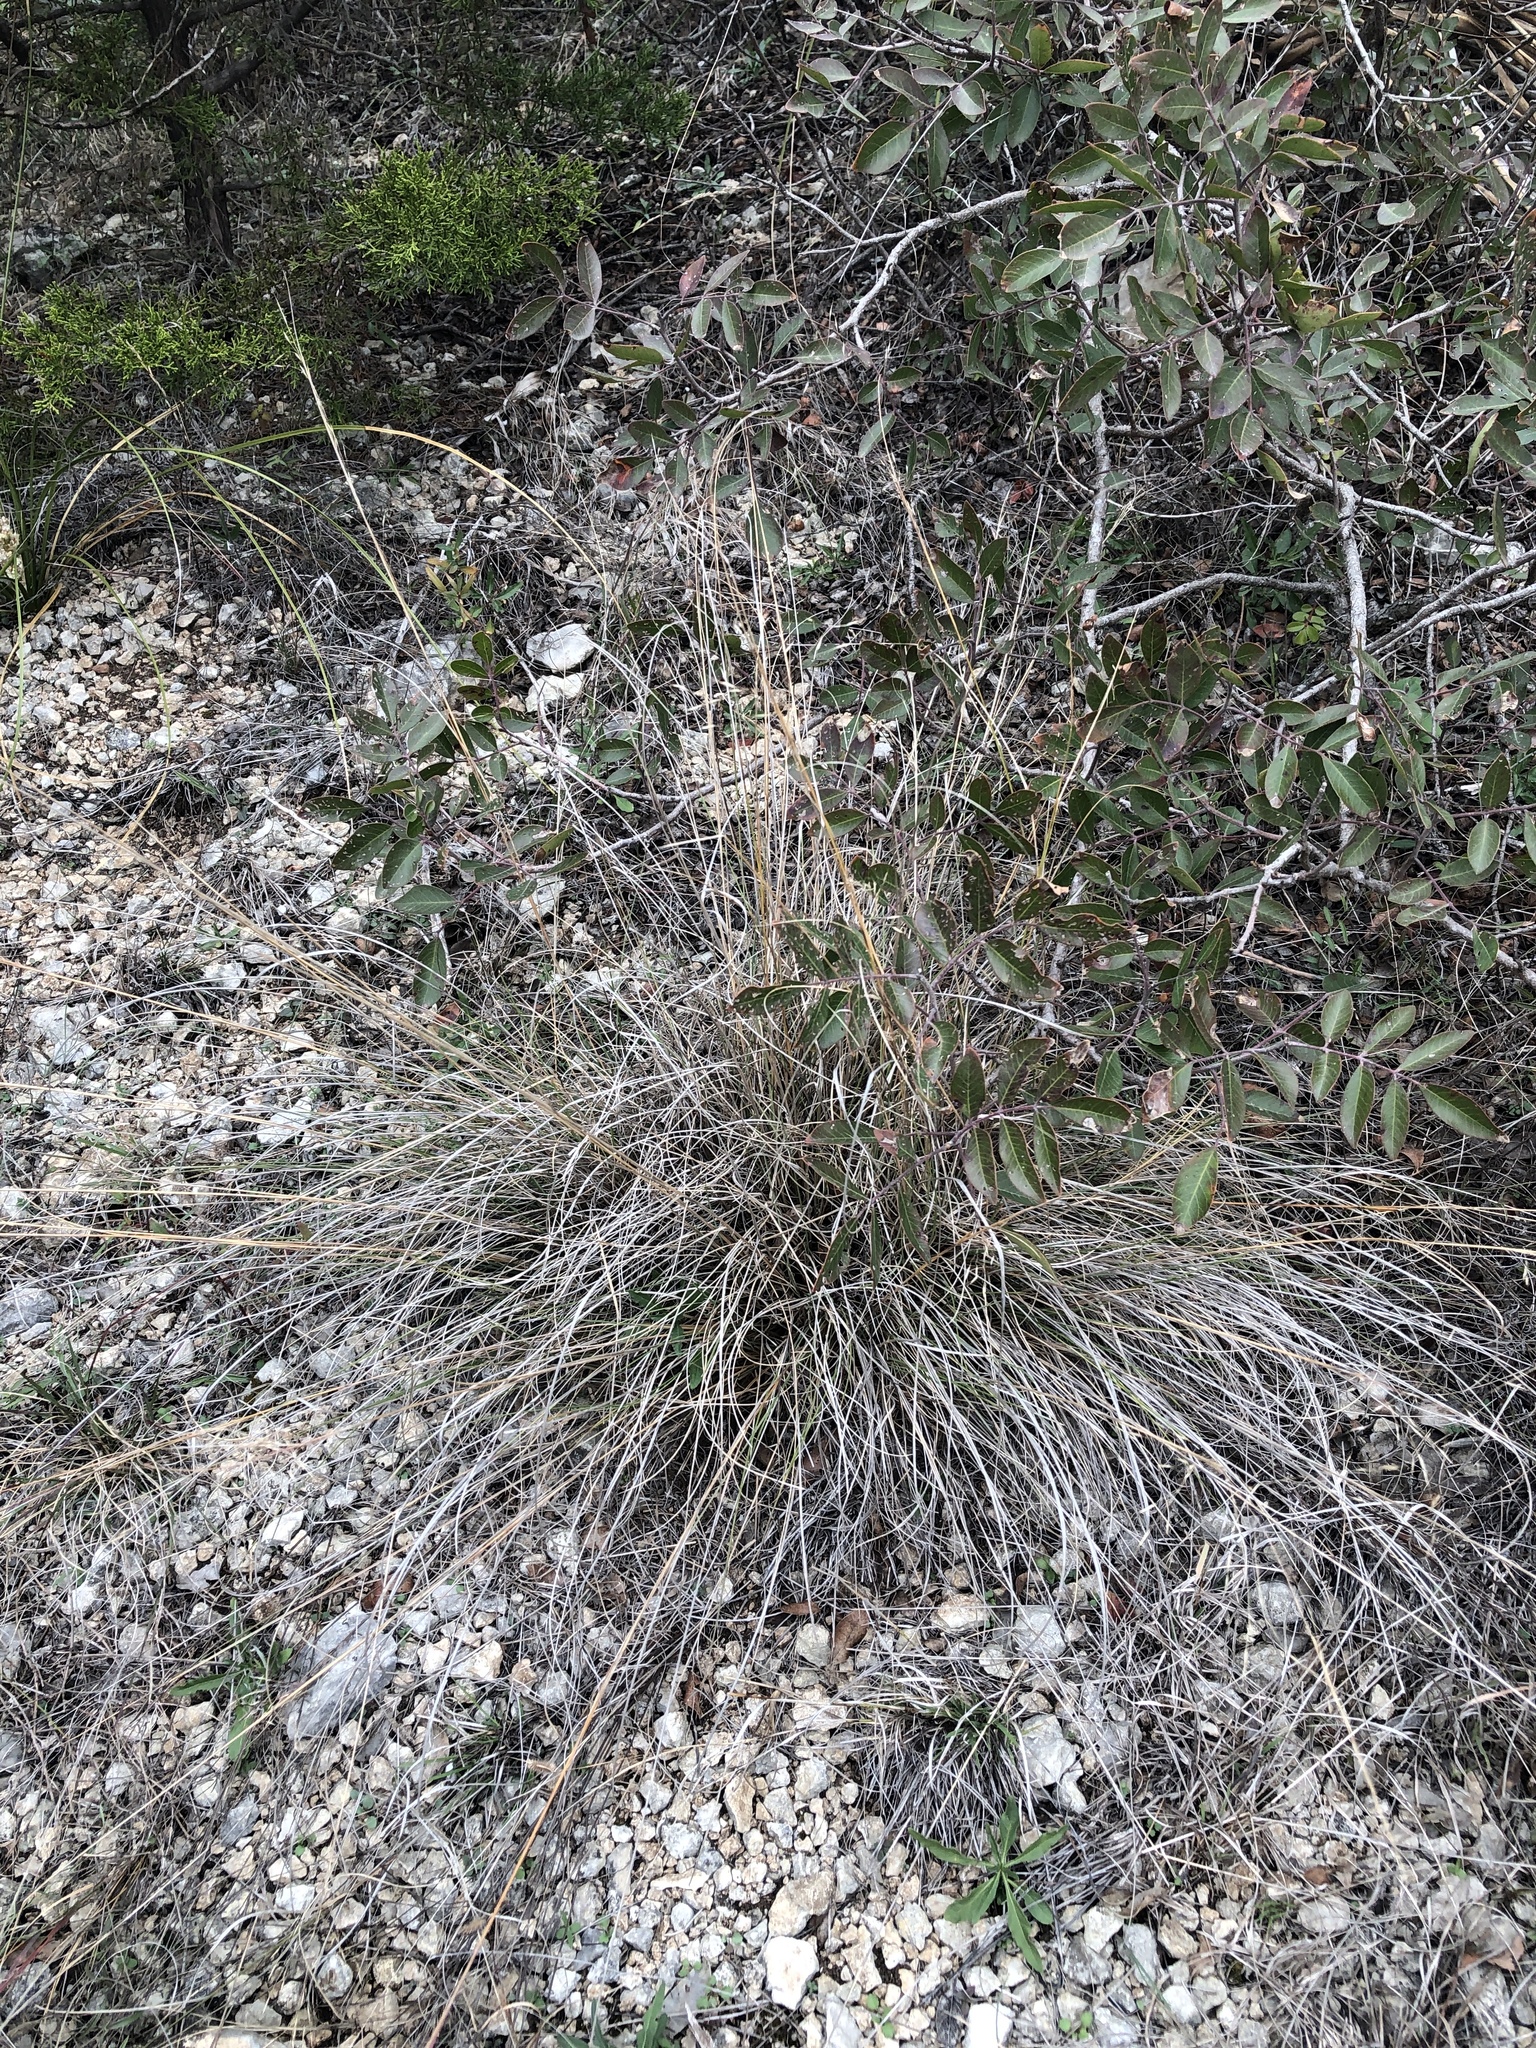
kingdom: Plantae
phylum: Tracheophyta
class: Liliopsida
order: Poales
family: Poaceae
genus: Muhlenbergia
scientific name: Muhlenbergia reverchonii
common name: Seep muhly
